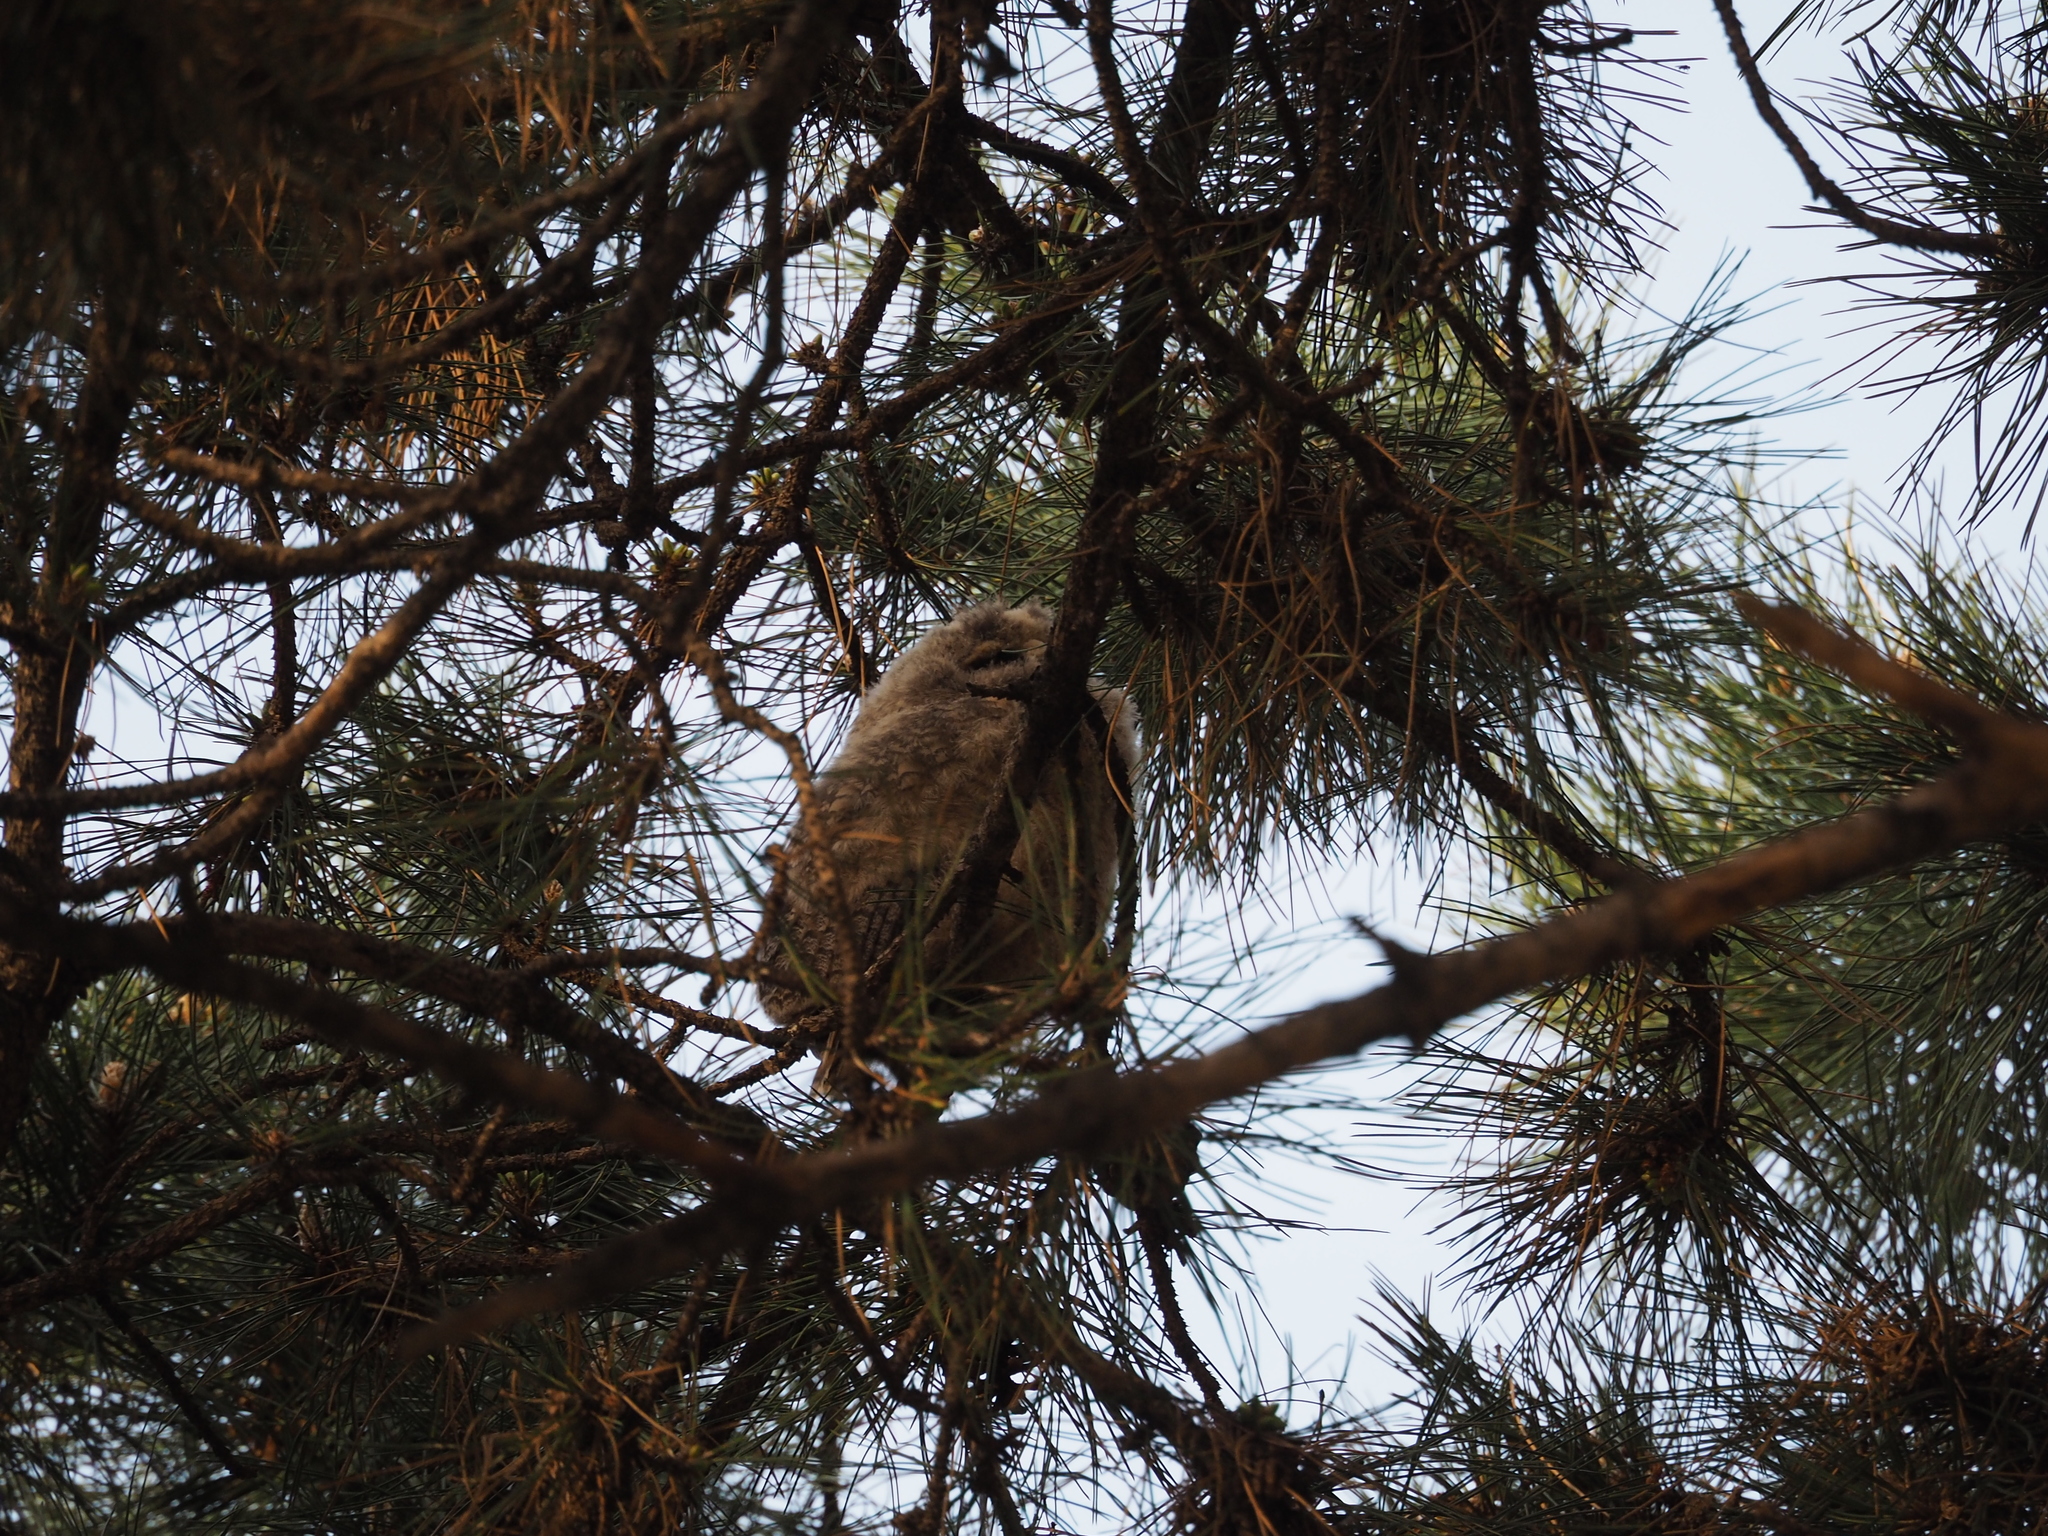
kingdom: Animalia
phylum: Chordata
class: Aves
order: Strigiformes
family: Strigidae
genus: Asio
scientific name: Asio otus
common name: Long-eared owl
